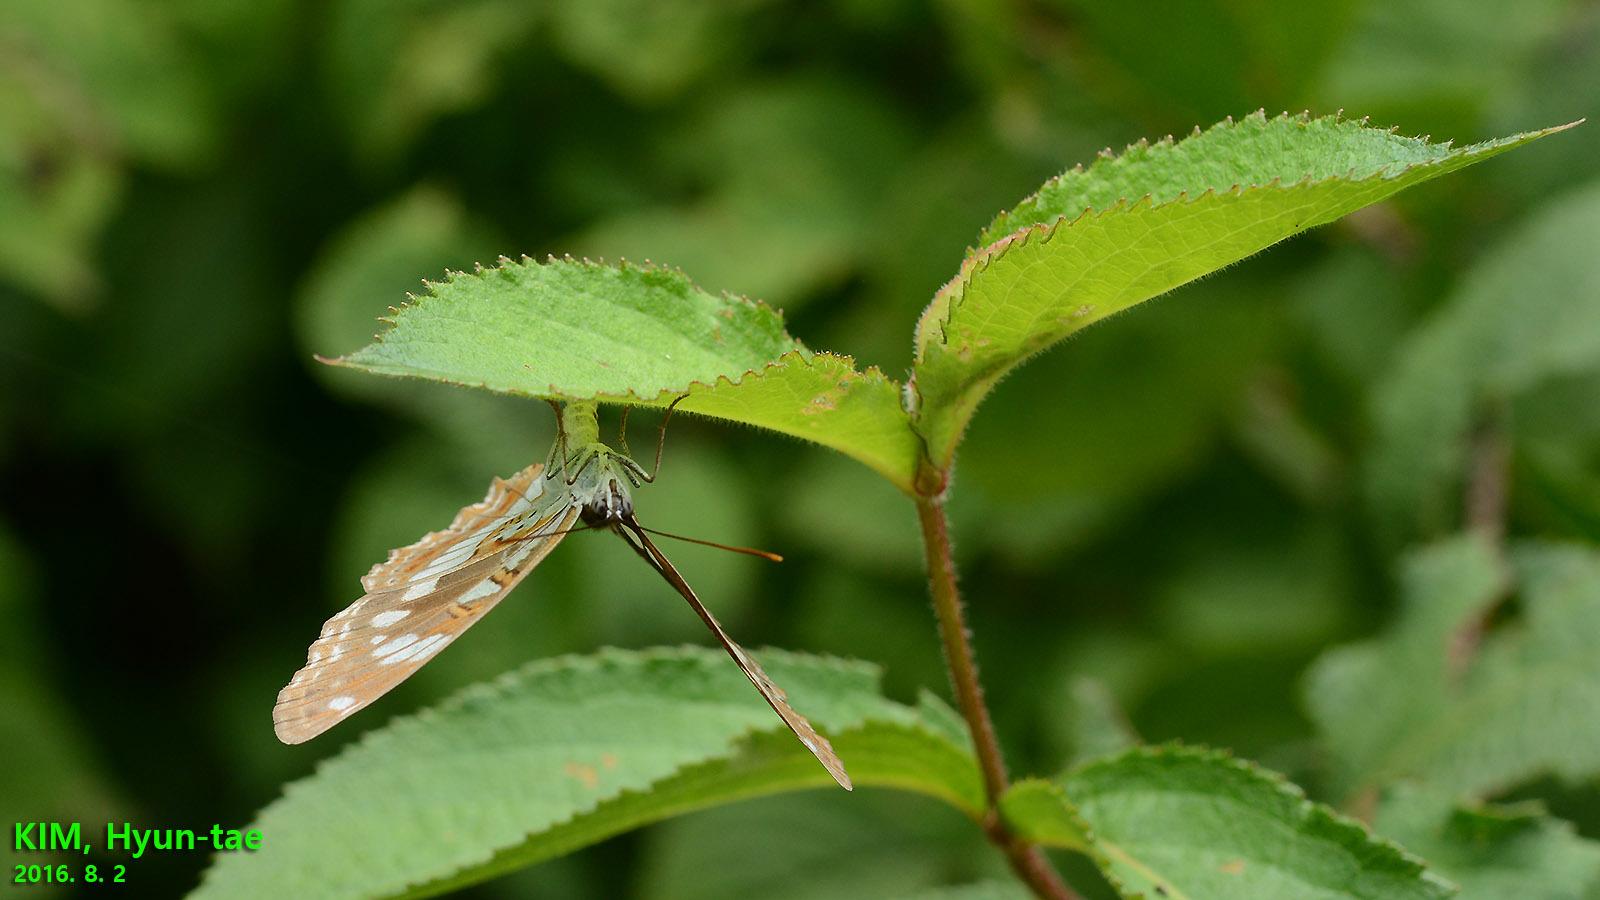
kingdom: Animalia
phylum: Arthropoda
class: Insecta
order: Lepidoptera
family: Nymphalidae
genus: Limenitis
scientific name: Limenitis doerriesi
